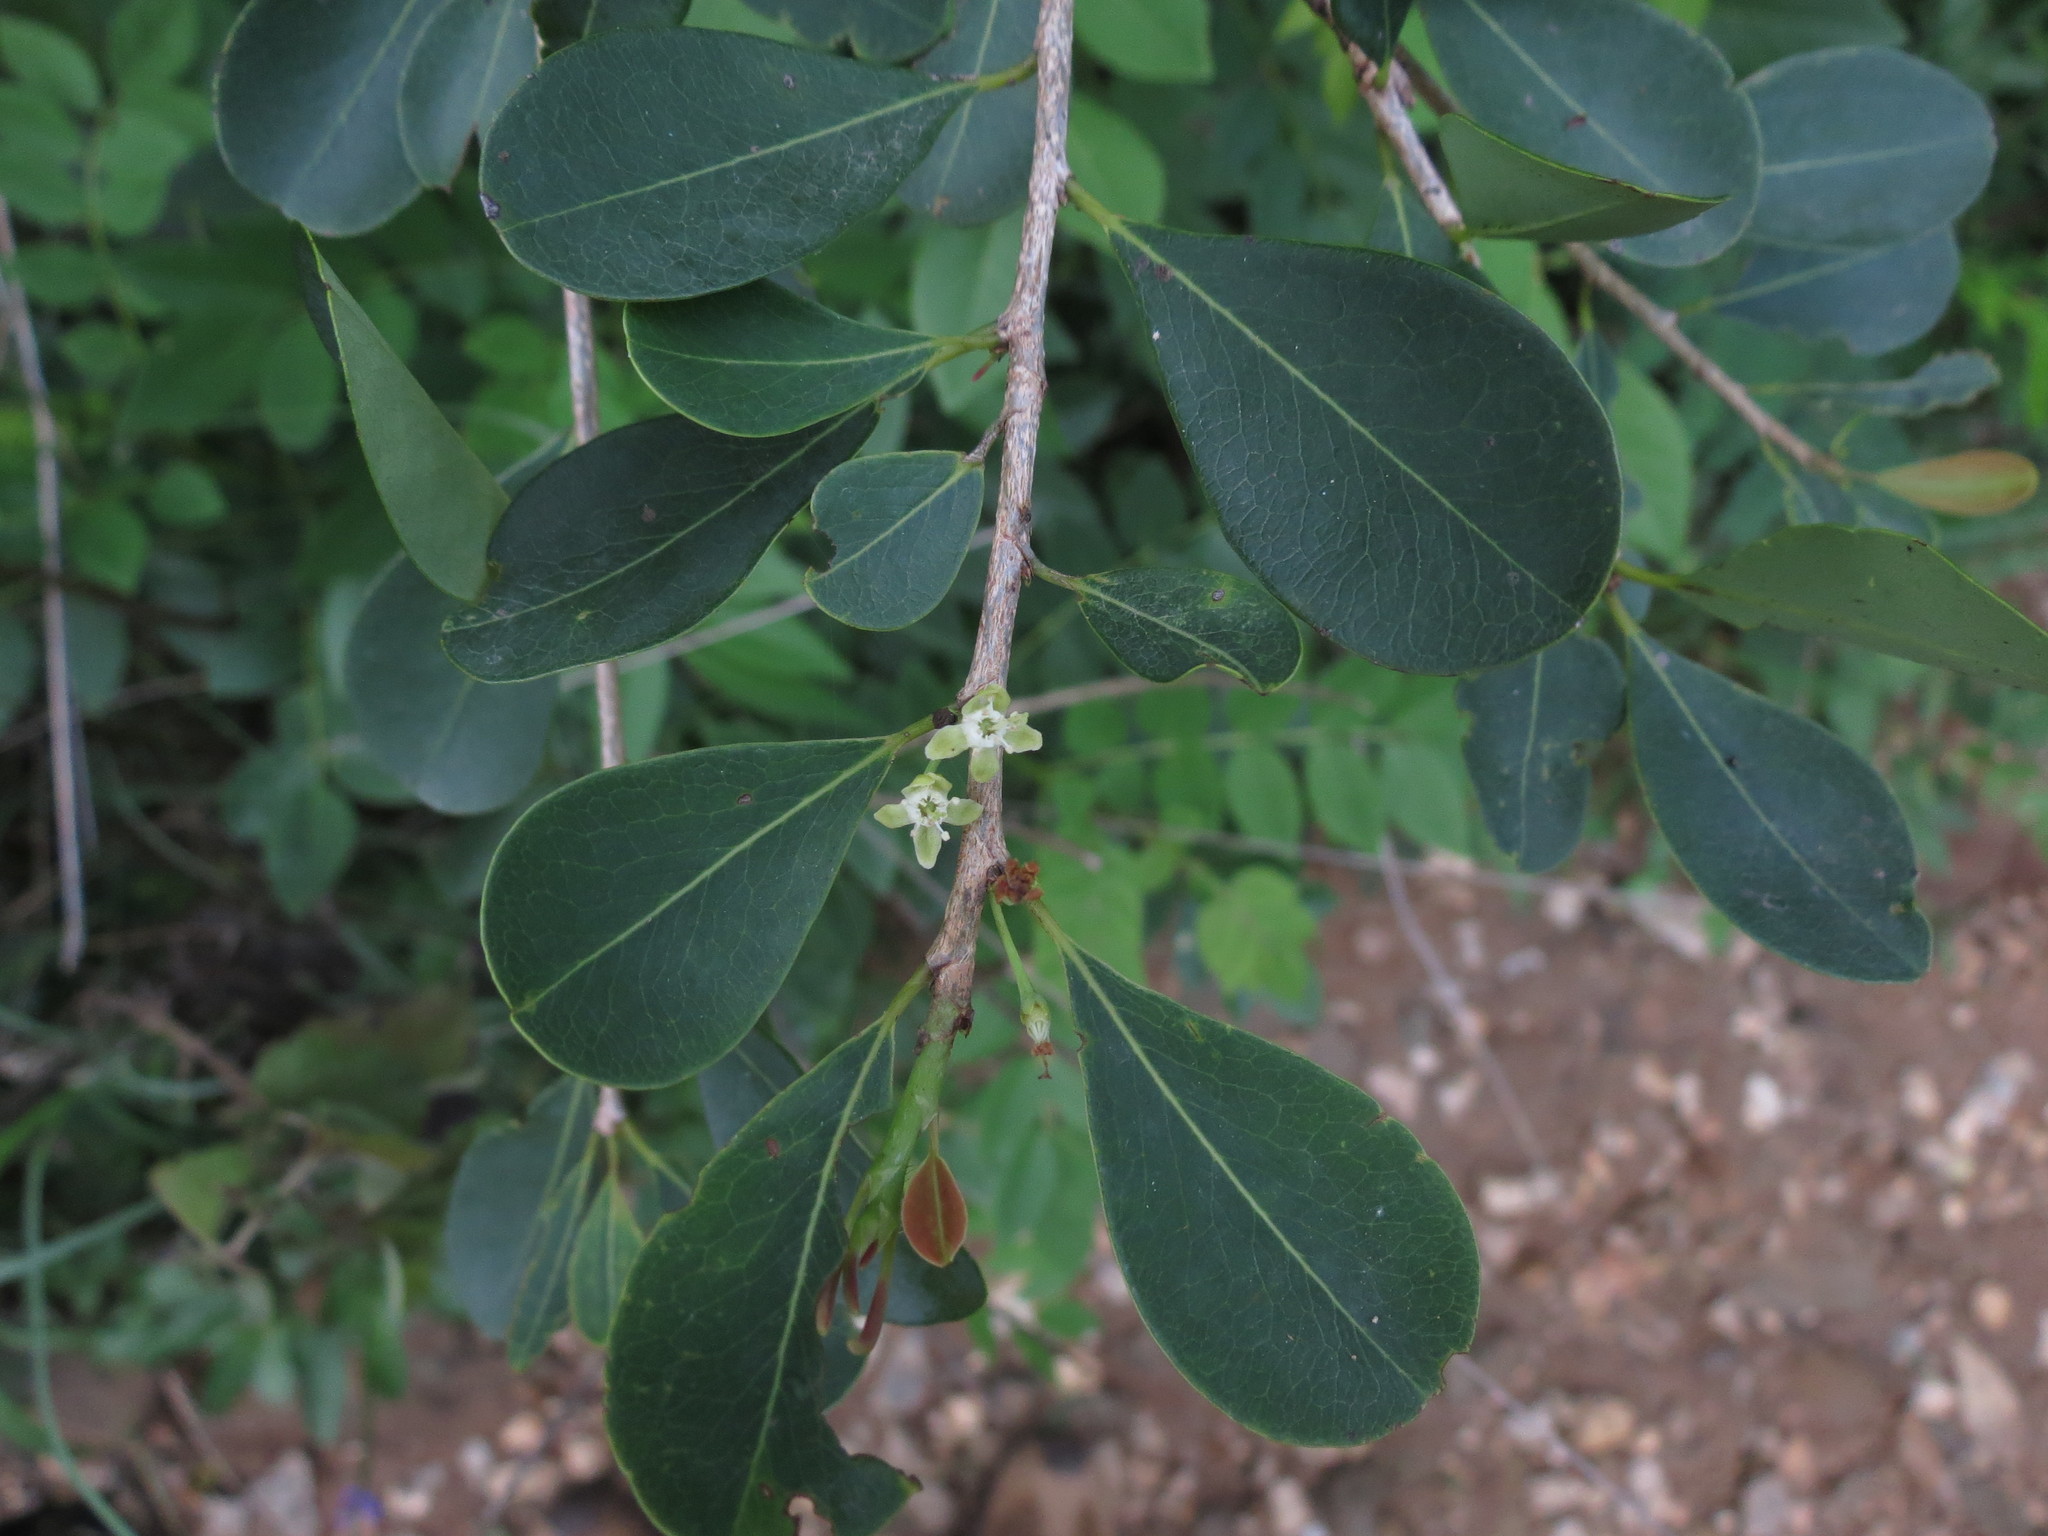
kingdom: Plantae
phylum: Tracheophyta
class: Magnoliopsida
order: Malpighiales
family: Erythroxylaceae
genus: Erythroxylum
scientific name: Erythroxylum monogynum
